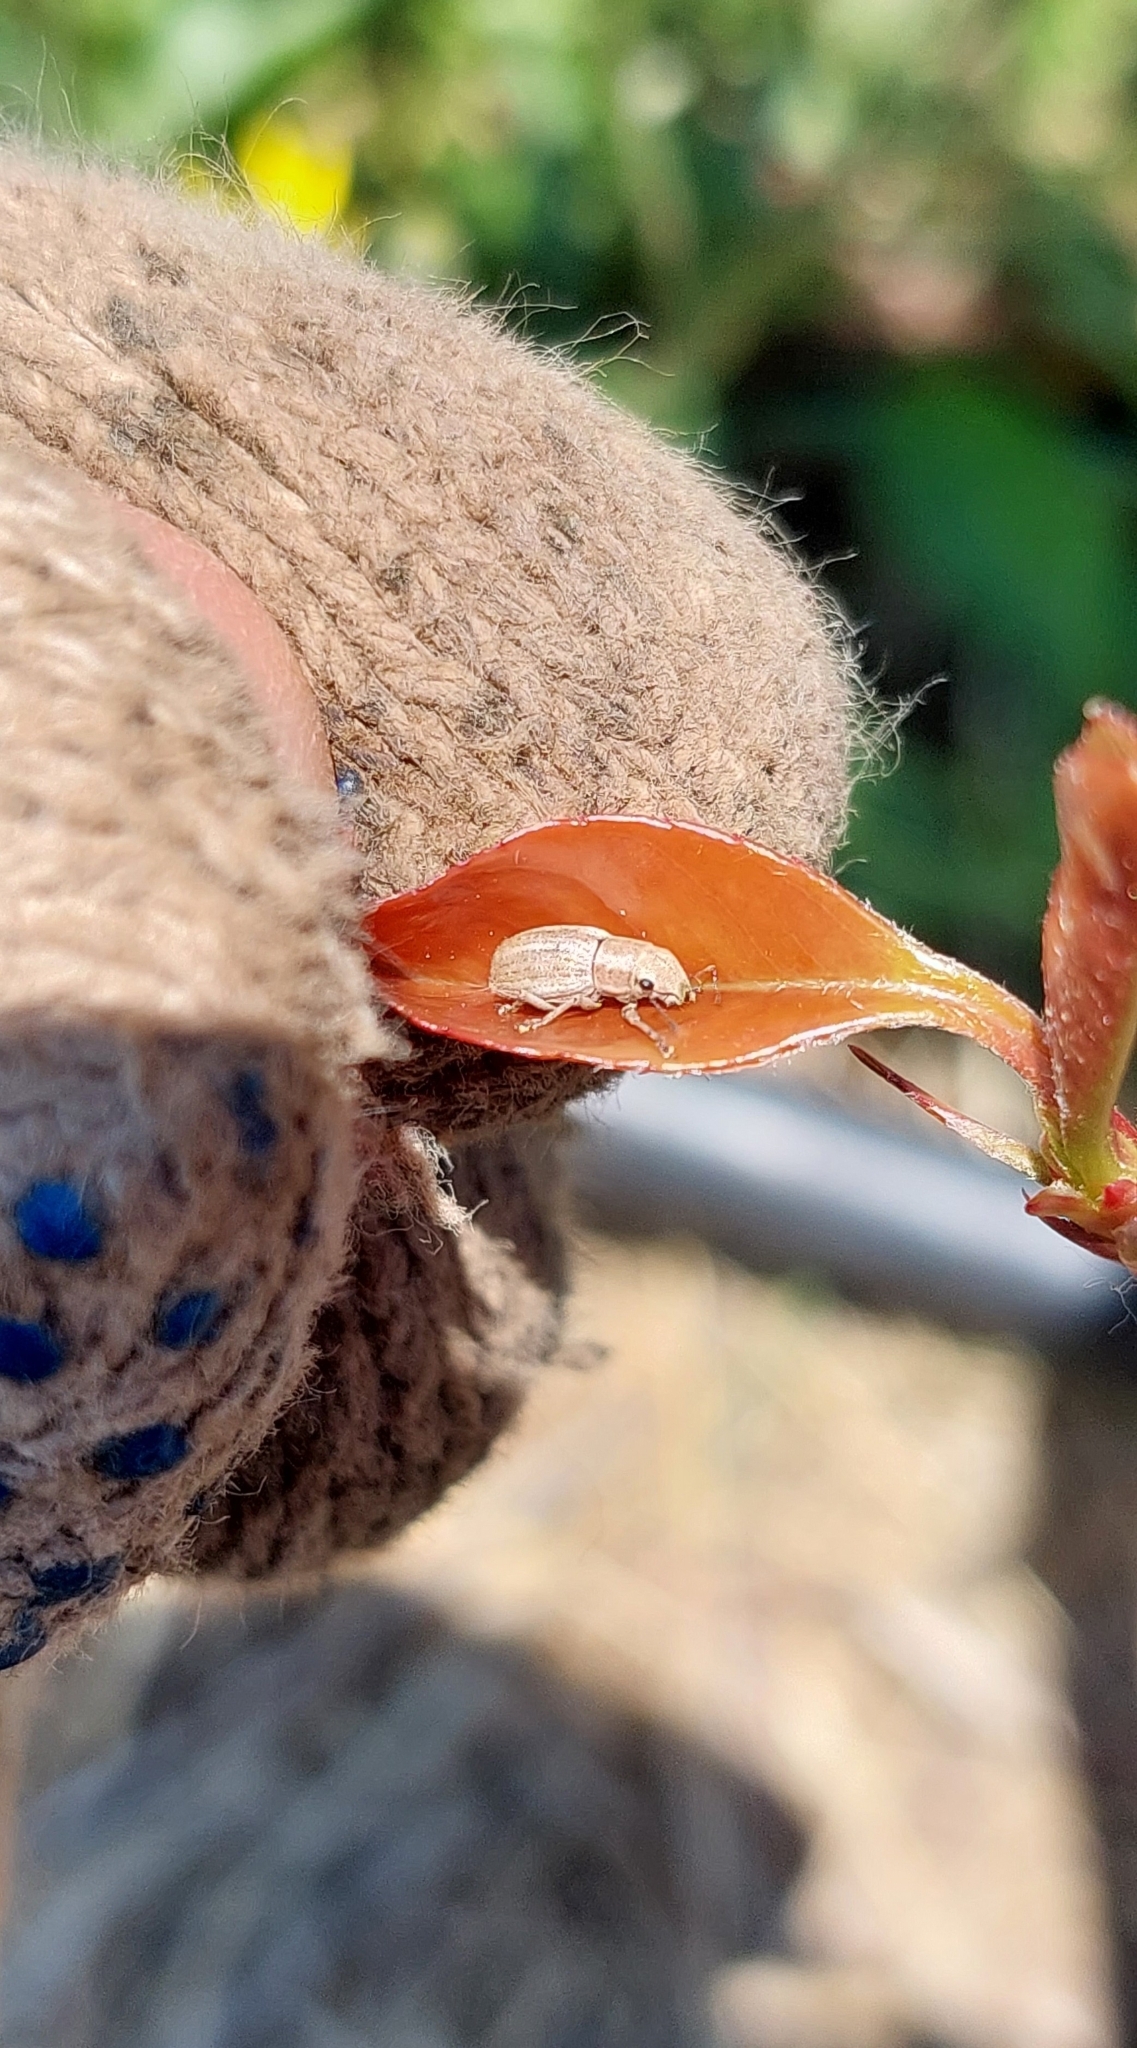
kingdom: Animalia
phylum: Arthropoda
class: Insecta
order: Coleoptera
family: Curculionidae
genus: Aramigus
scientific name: Aramigus tessellatus
